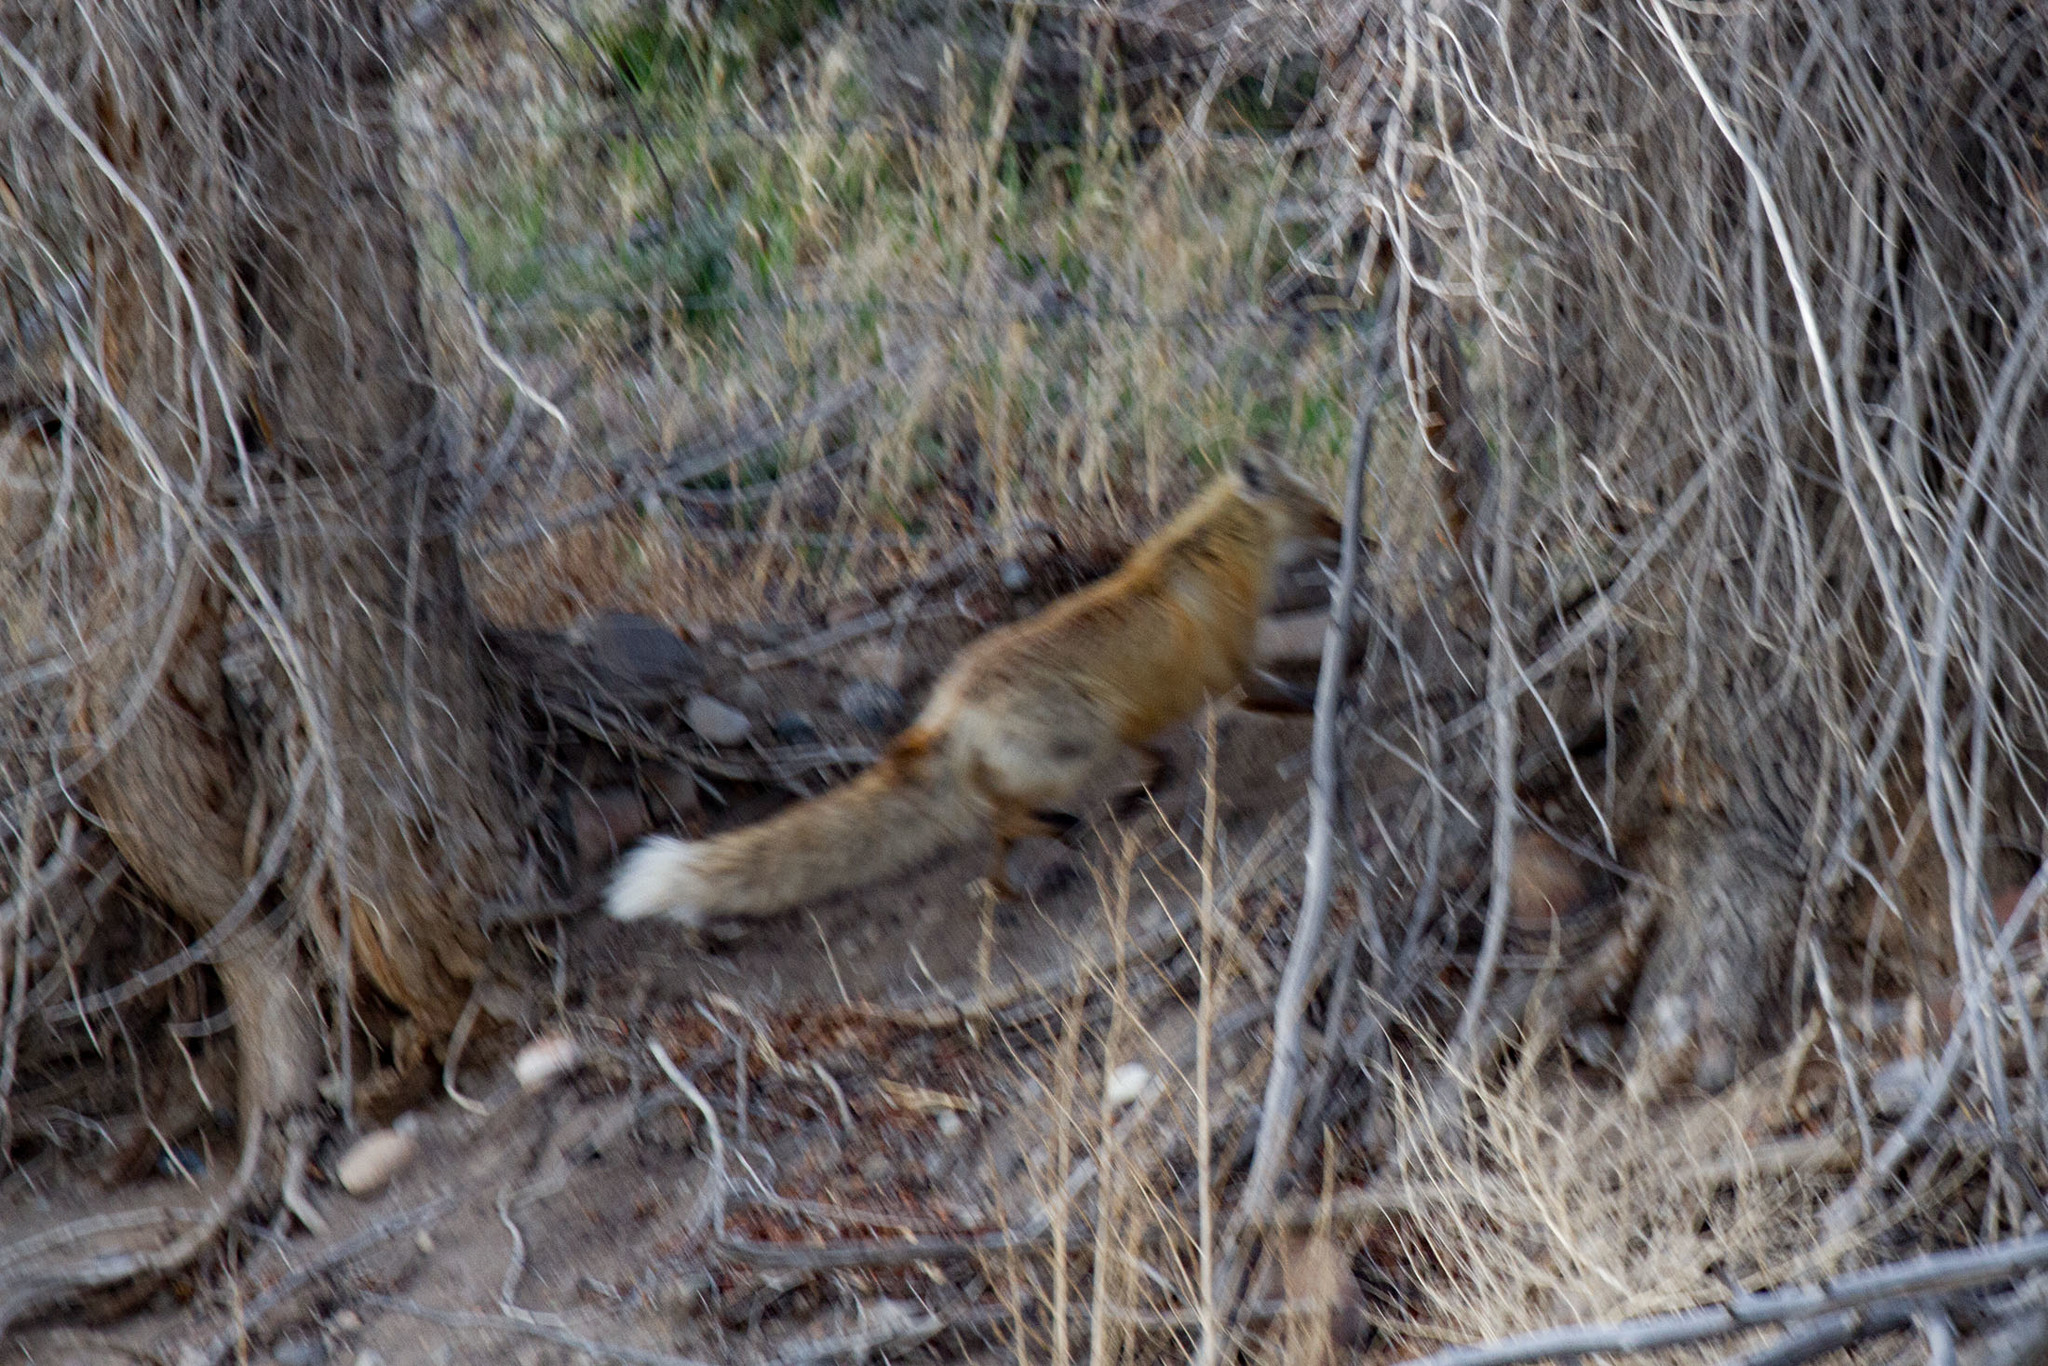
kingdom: Animalia
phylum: Chordata
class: Mammalia
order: Carnivora
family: Canidae
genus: Vulpes
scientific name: Vulpes vulpes
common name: Red fox
